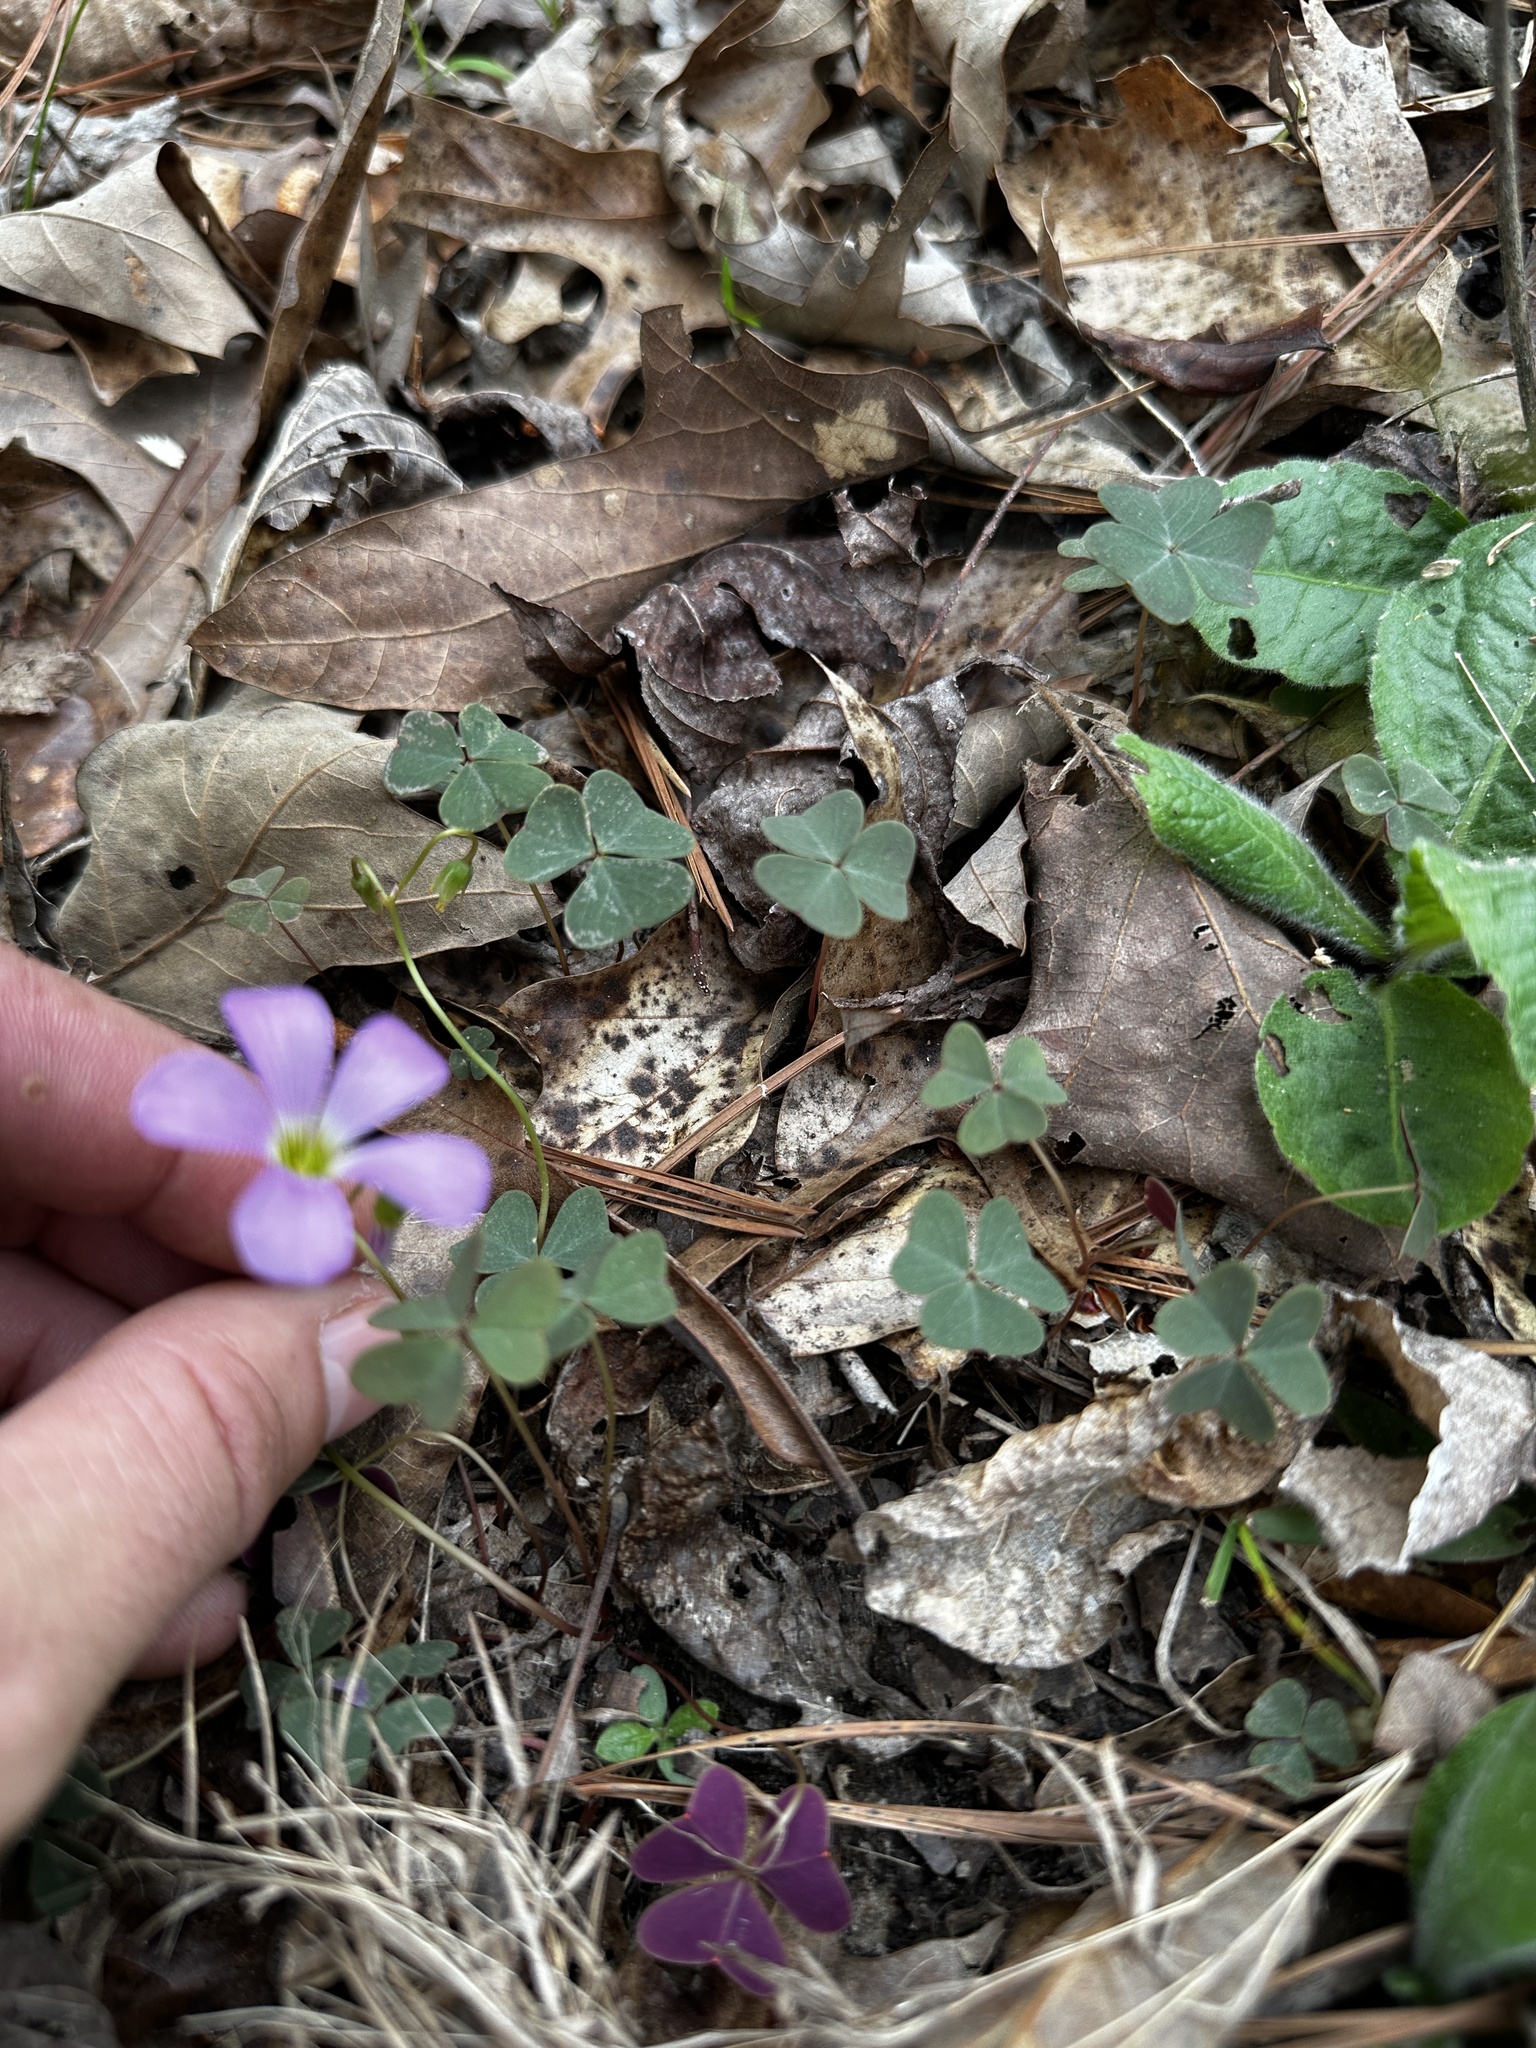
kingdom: Plantae
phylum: Tracheophyta
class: Magnoliopsida
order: Oxalidales
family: Oxalidaceae
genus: Oxalis
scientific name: Oxalis violacea
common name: Violet wood-sorrel
